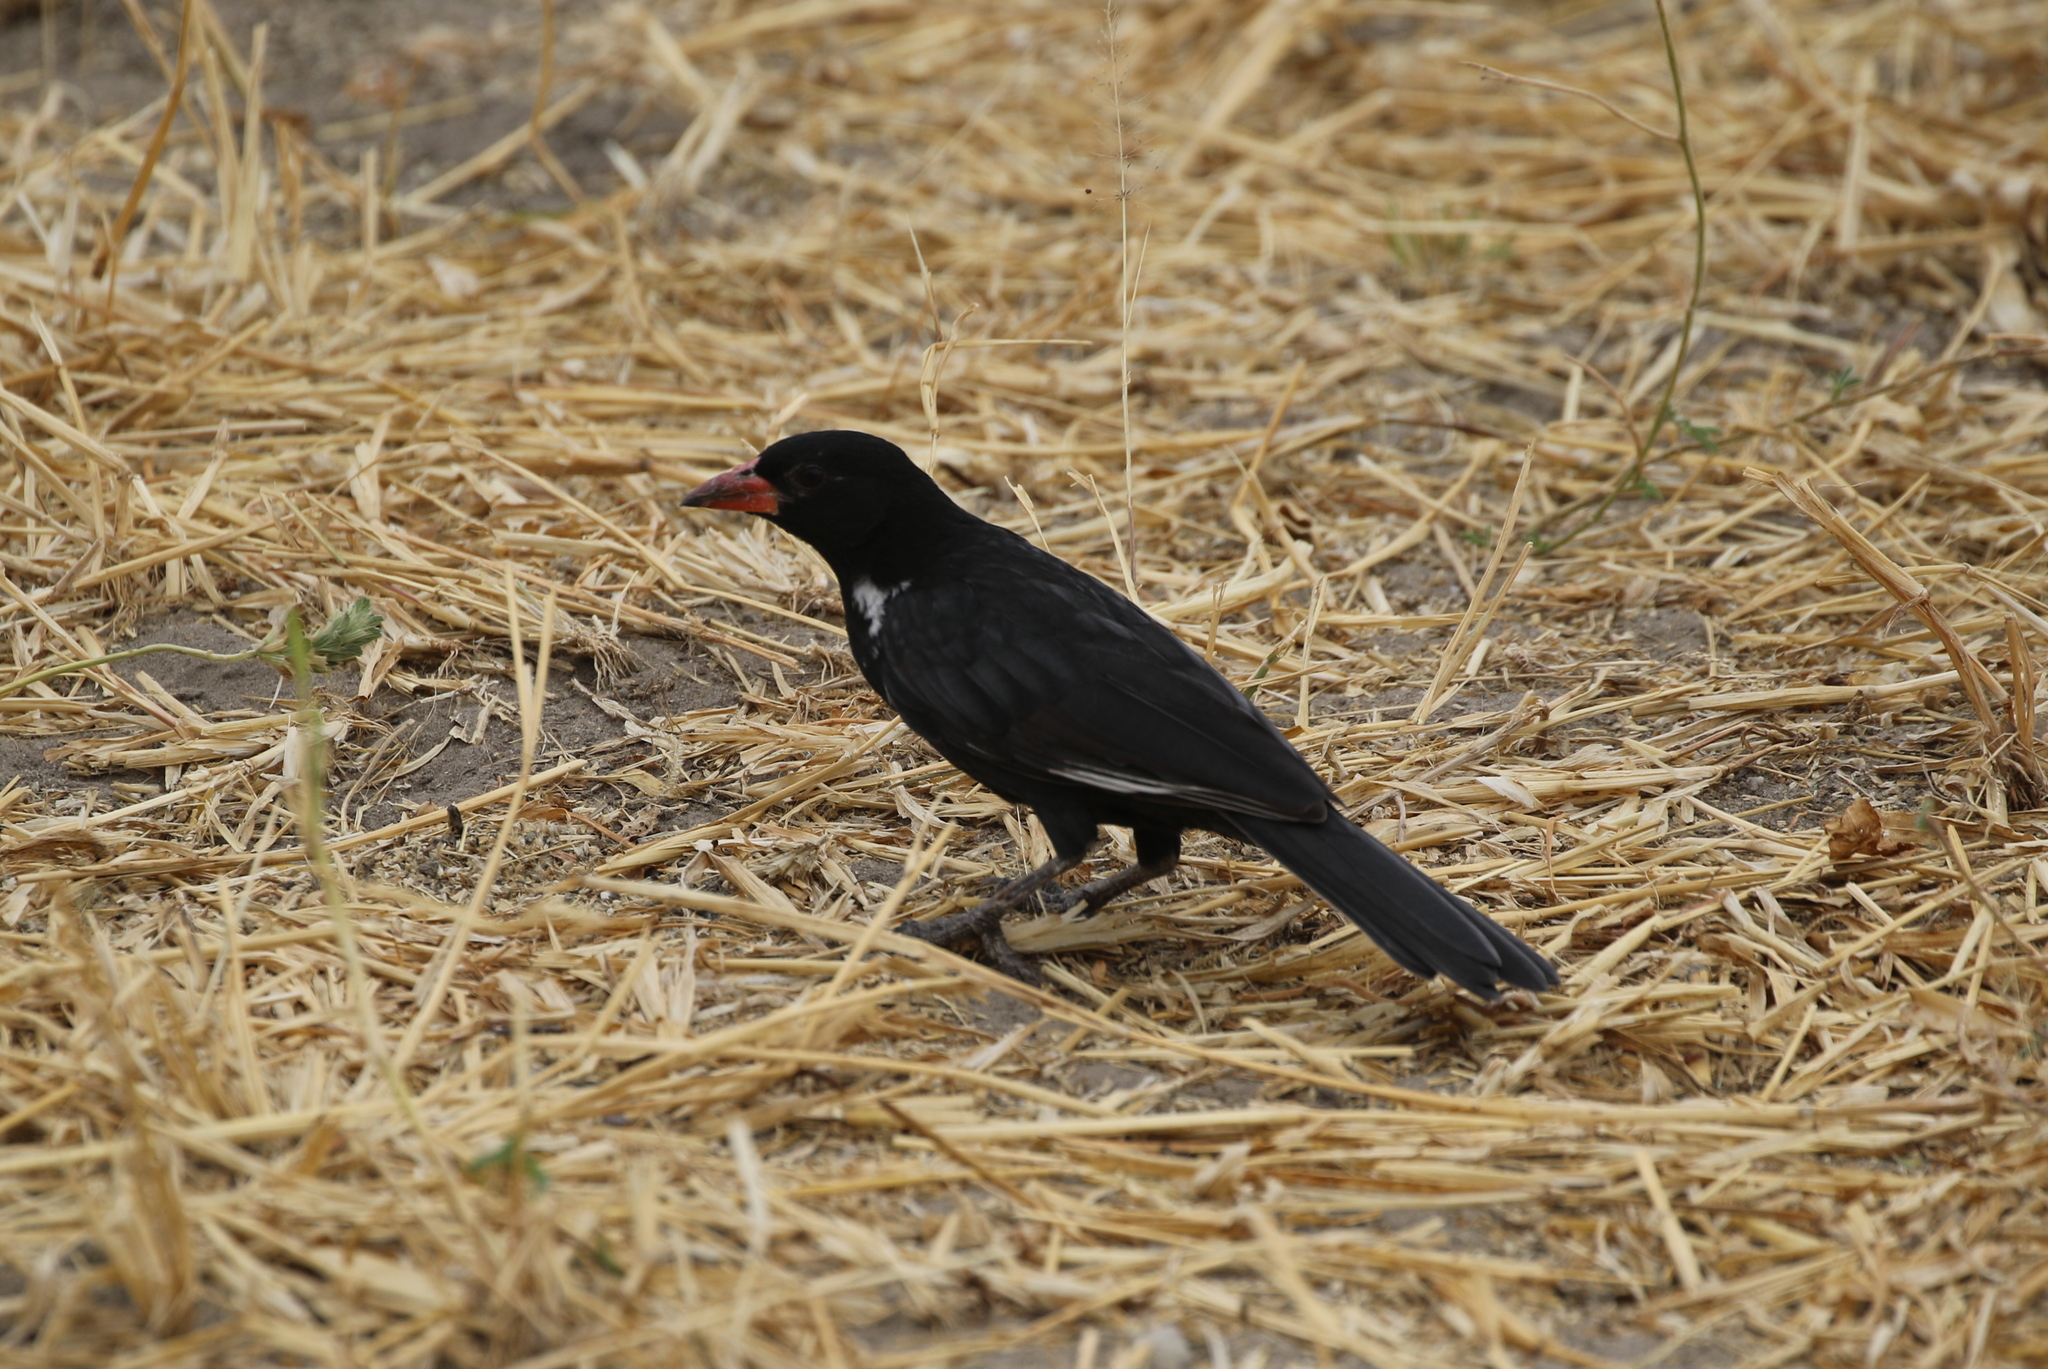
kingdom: Animalia
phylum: Chordata
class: Aves
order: Passeriformes
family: Ploceidae
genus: Bubalornis
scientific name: Bubalornis niger
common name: Red-billed buffalo weaver
